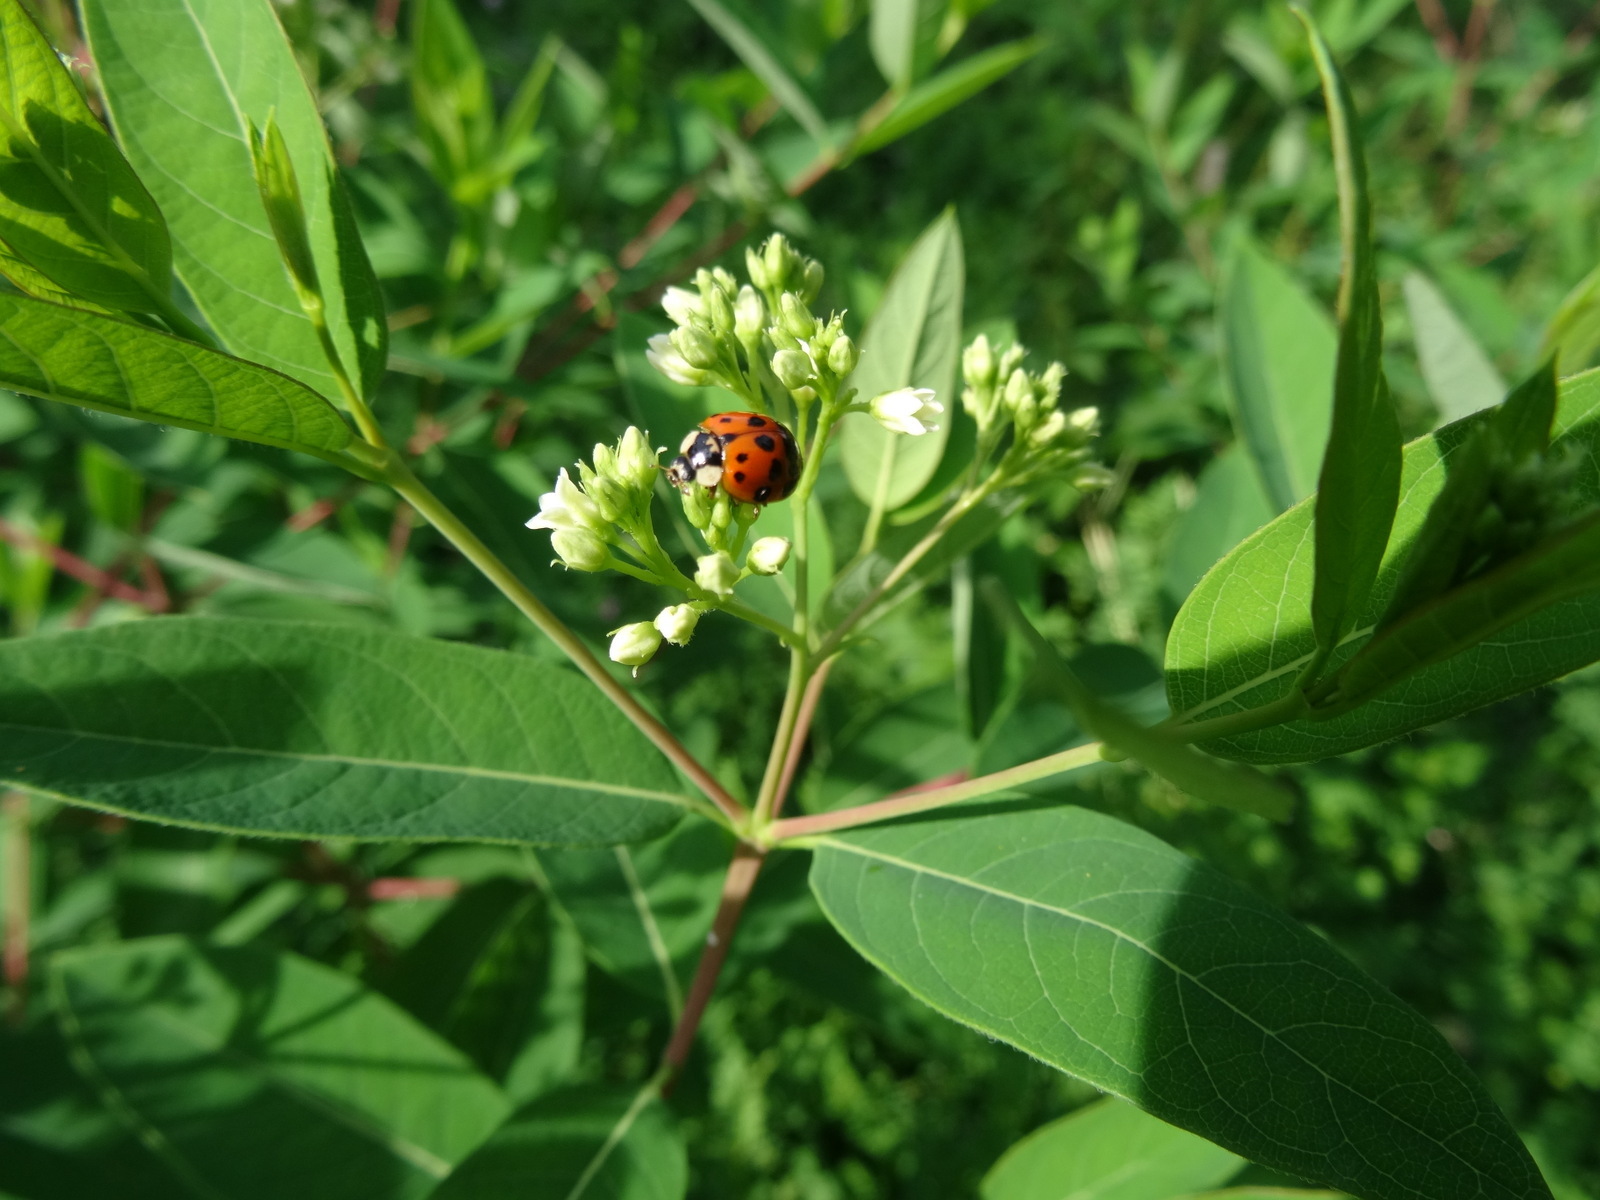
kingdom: Animalia
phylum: Arthropoda
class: Insecta
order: Coleoptera
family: Coccinellidae
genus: Harmonia
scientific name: Harmonia axyridis
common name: Harlequin ladybird
